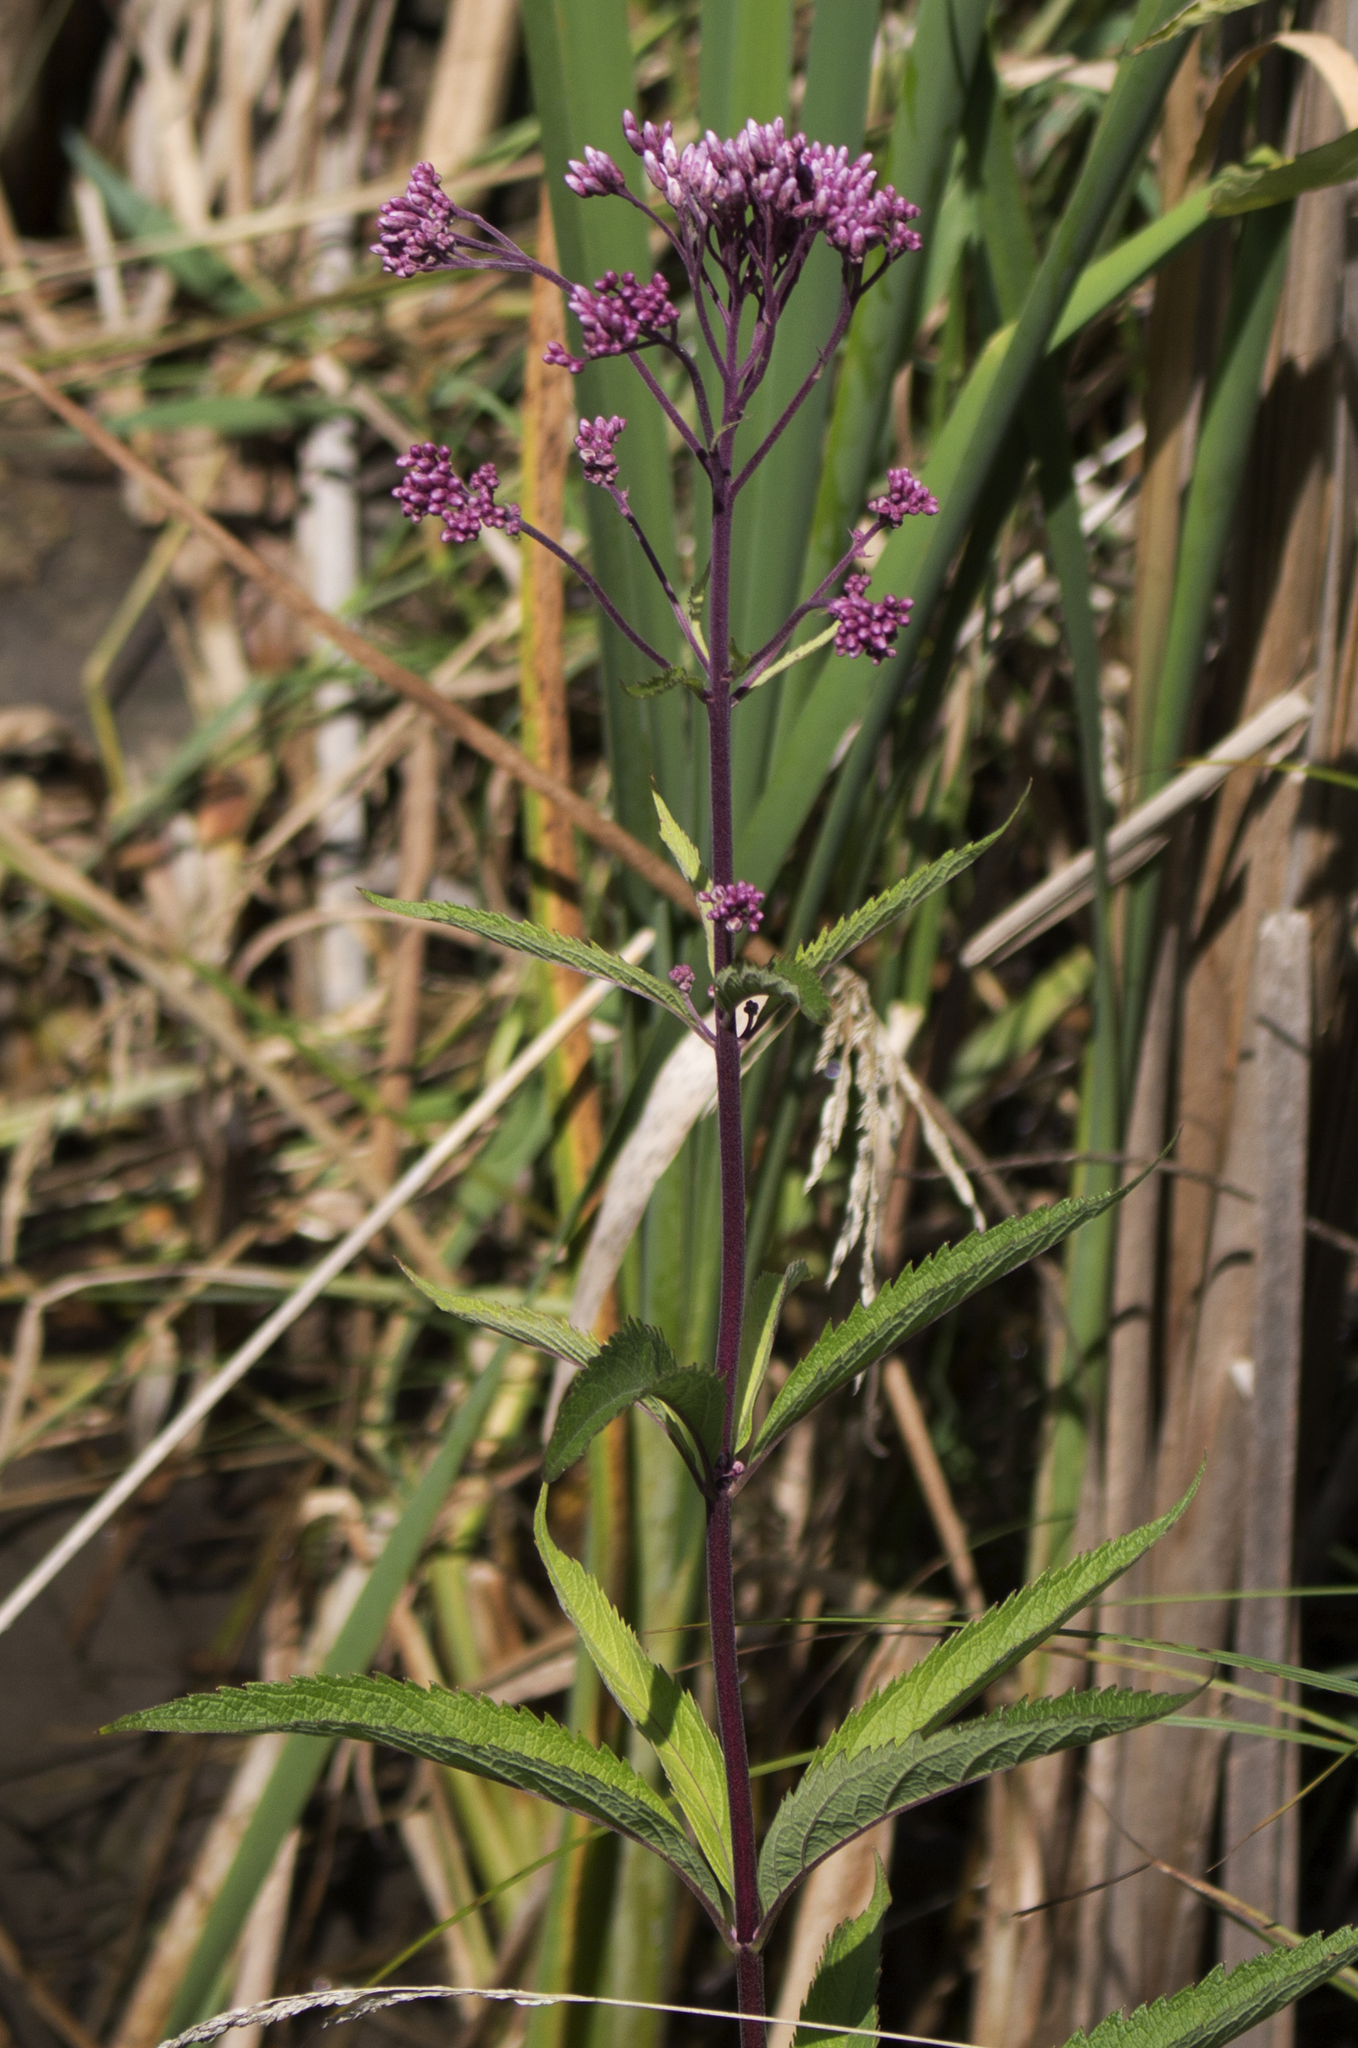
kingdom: Plantae
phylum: Tracheophyta
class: Magnoliopsida
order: Asterales
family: Asteraceae
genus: Eutrochium
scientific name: Eutrochium maculatum
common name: Spotted joe pye weed
